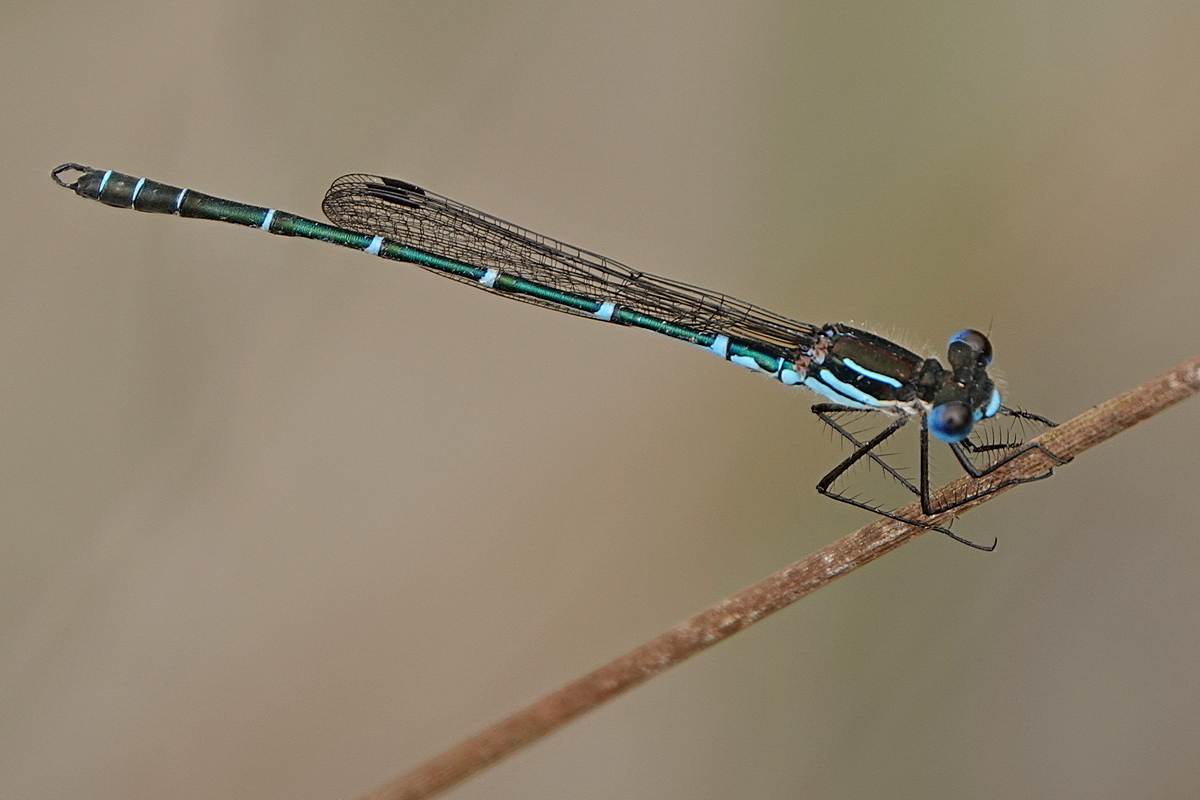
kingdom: Animalia
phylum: Arthropoda
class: Insecta
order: Odonata
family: Lestidae
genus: Austrolestes
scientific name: Austrolestes psyche
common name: Cup ringtail
